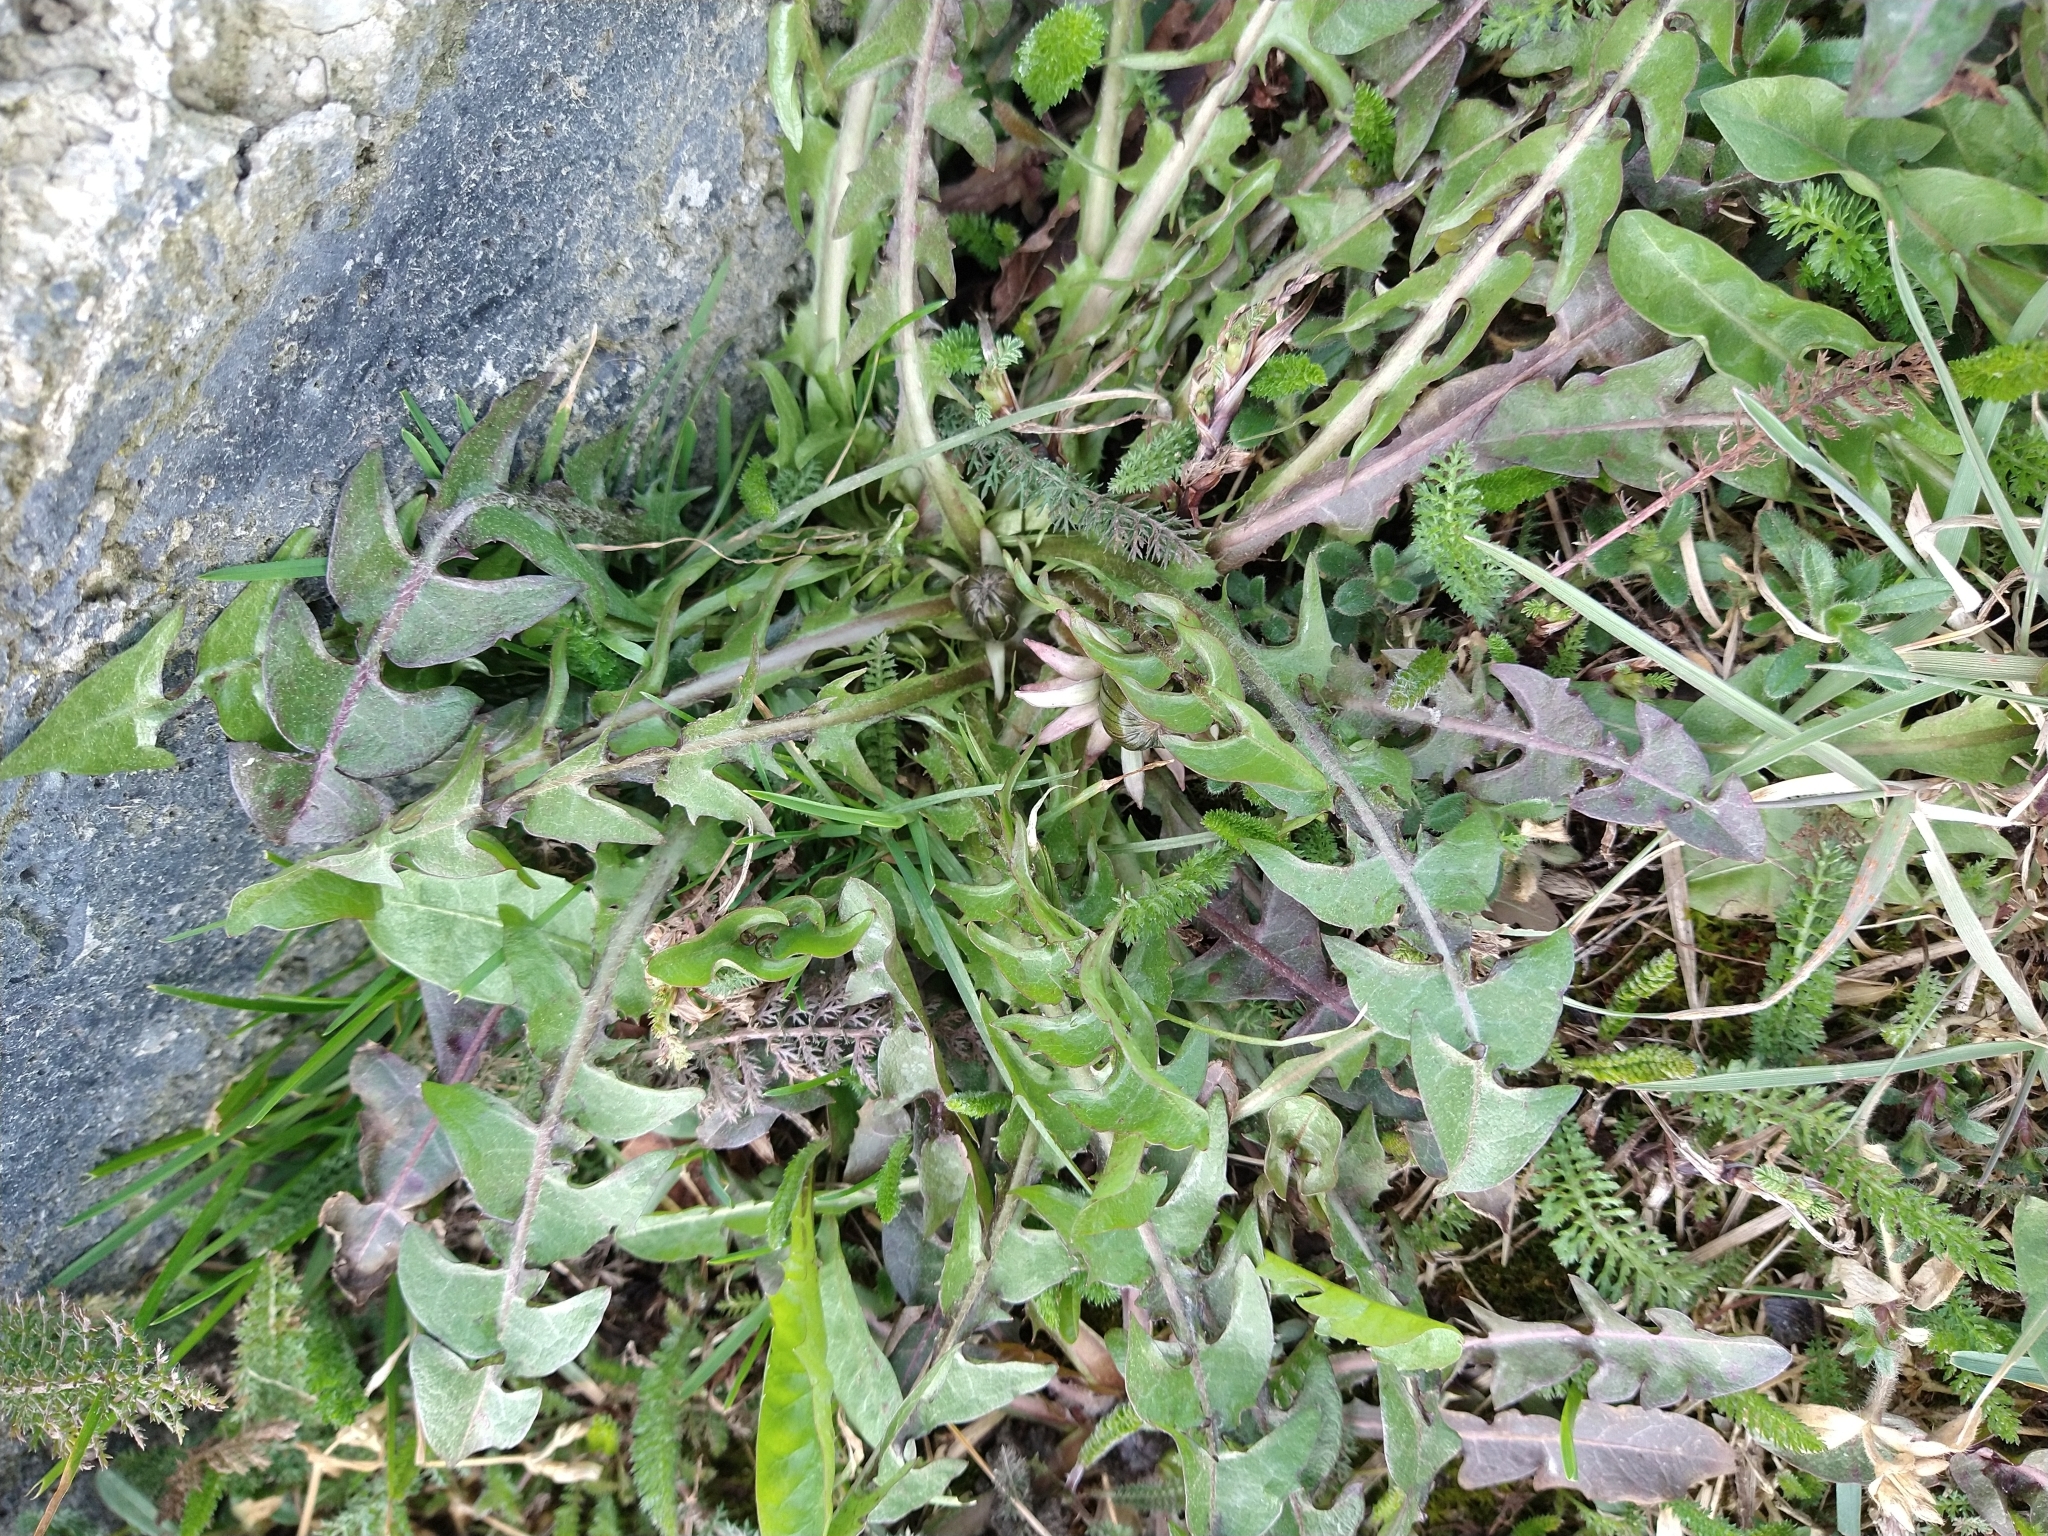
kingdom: Plantae
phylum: Tracheophyta
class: Magnoliopsida
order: Asterales
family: Asteraceae
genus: Taraxacum
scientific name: Taraxacum officinale
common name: Common dandelion
